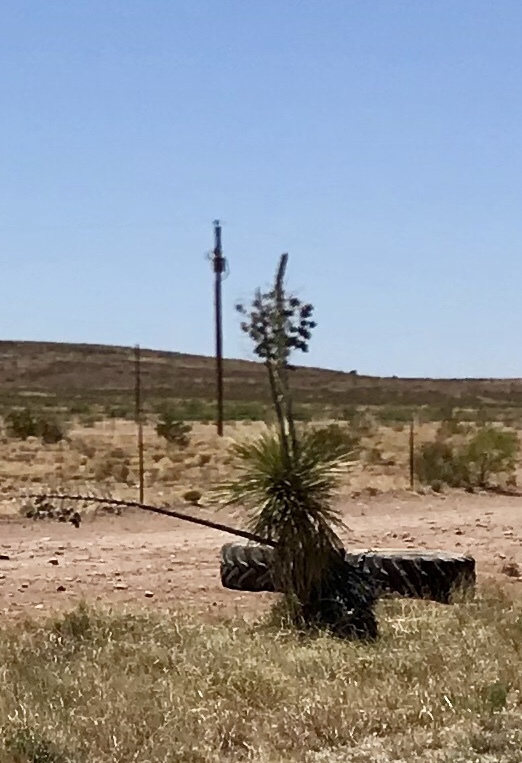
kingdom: Plantae
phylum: Tracheophyta
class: Liliopsida
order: Asparagales
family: Asparagaceae
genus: Yucca
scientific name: Yucca elata
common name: Palmella
